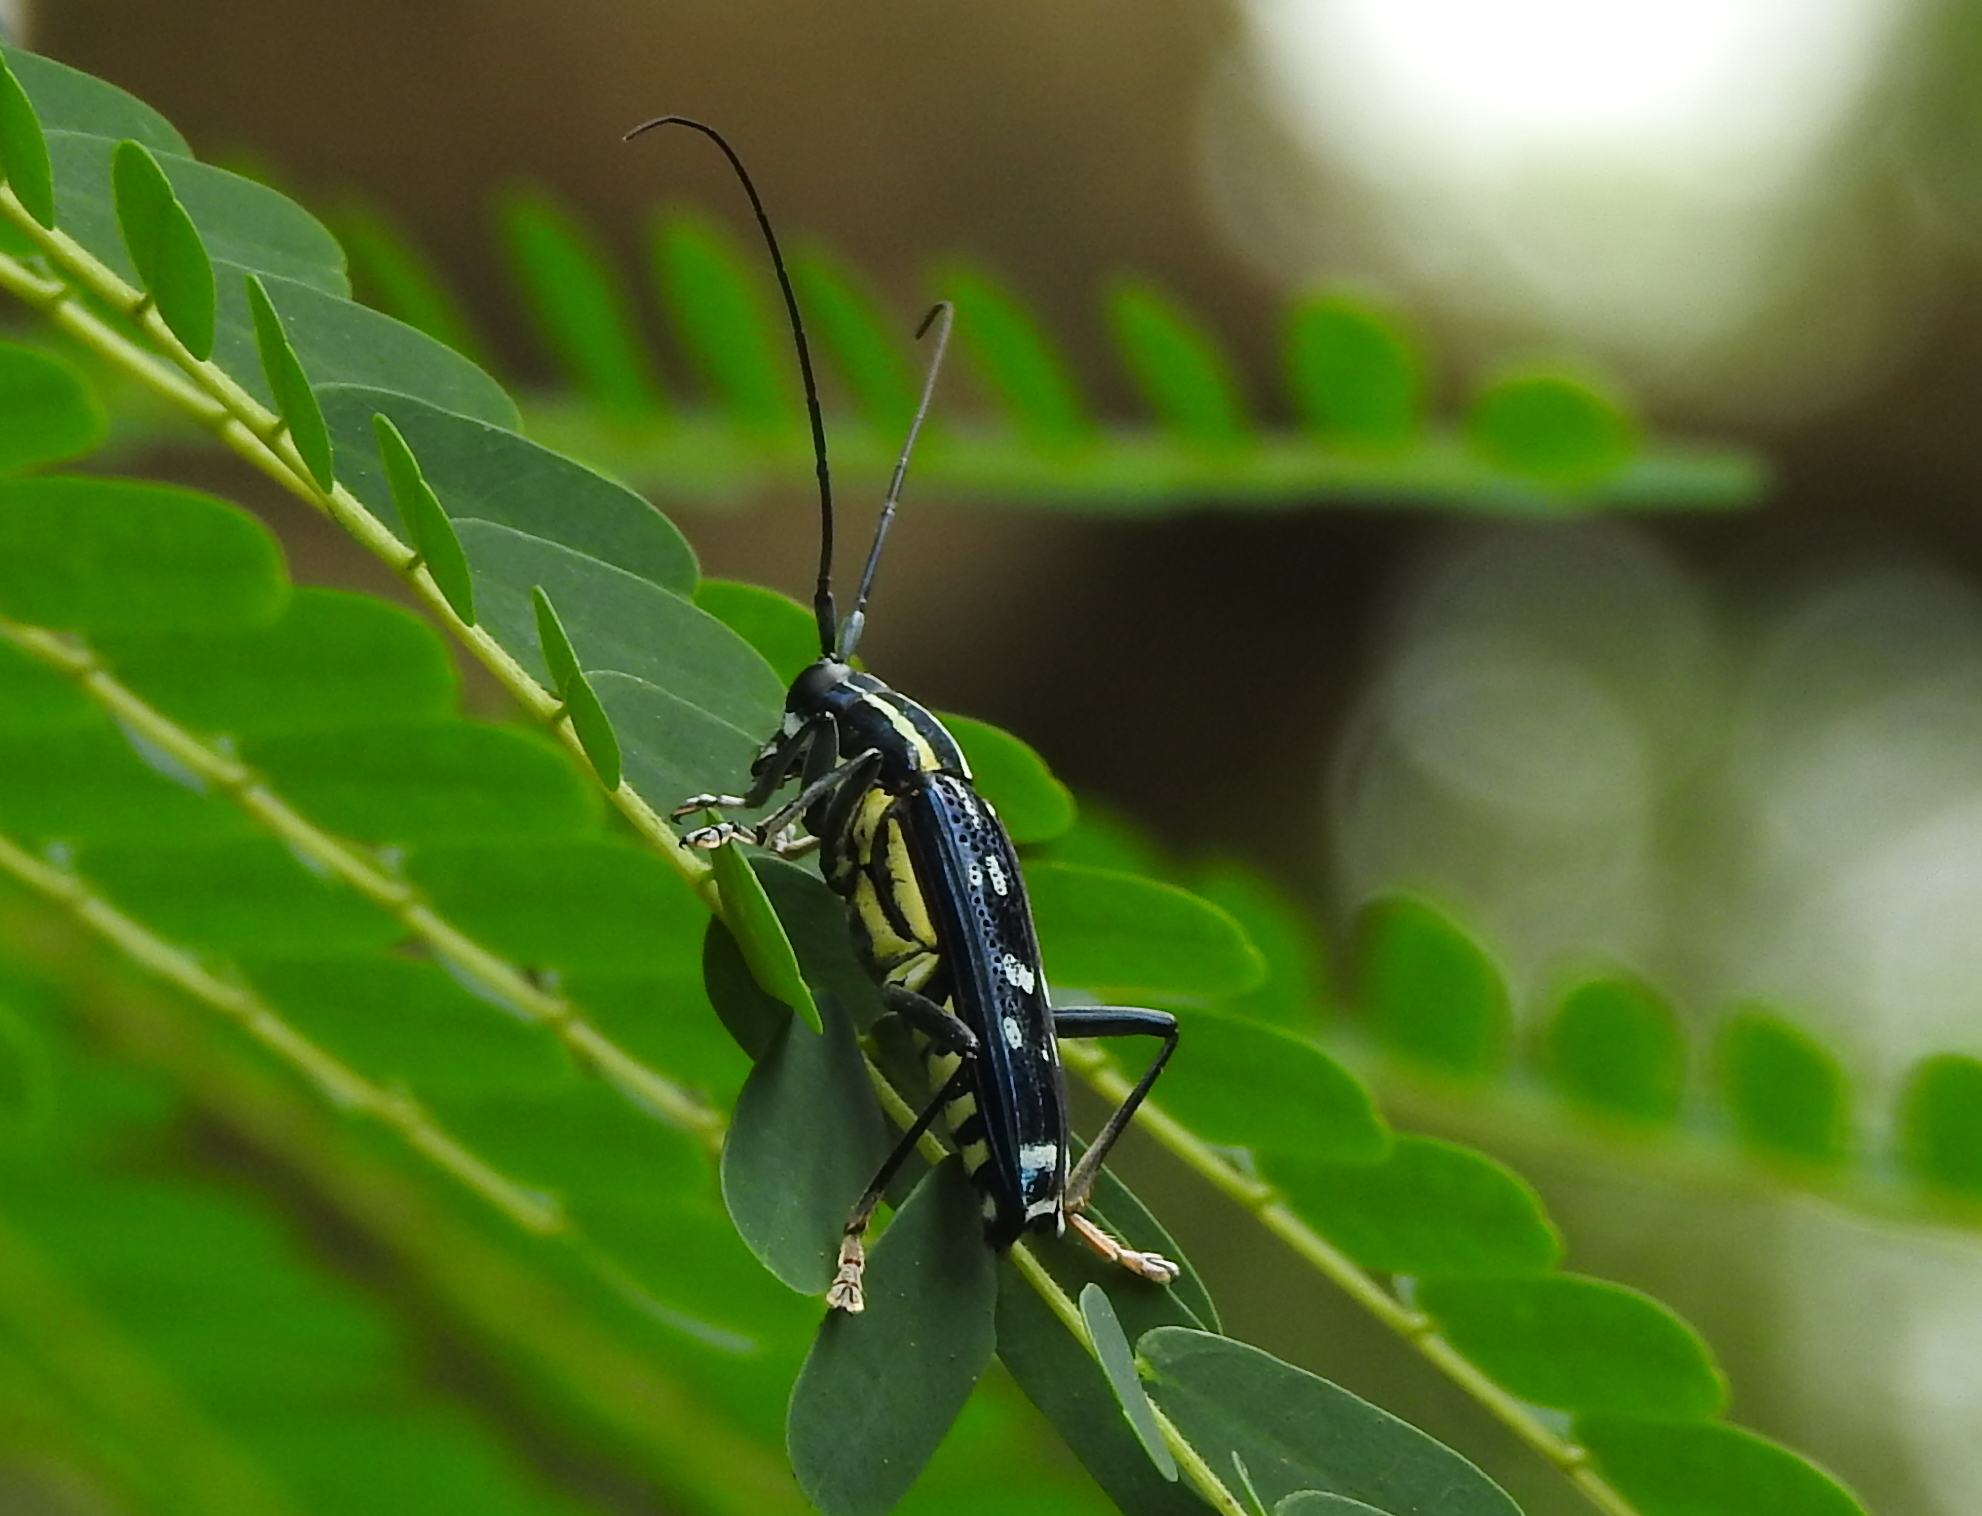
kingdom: Animalia
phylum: Arthropoda
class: Insecta
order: Coleoptera
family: Cerambycidae
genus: Glenea
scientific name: Glenea elegans
